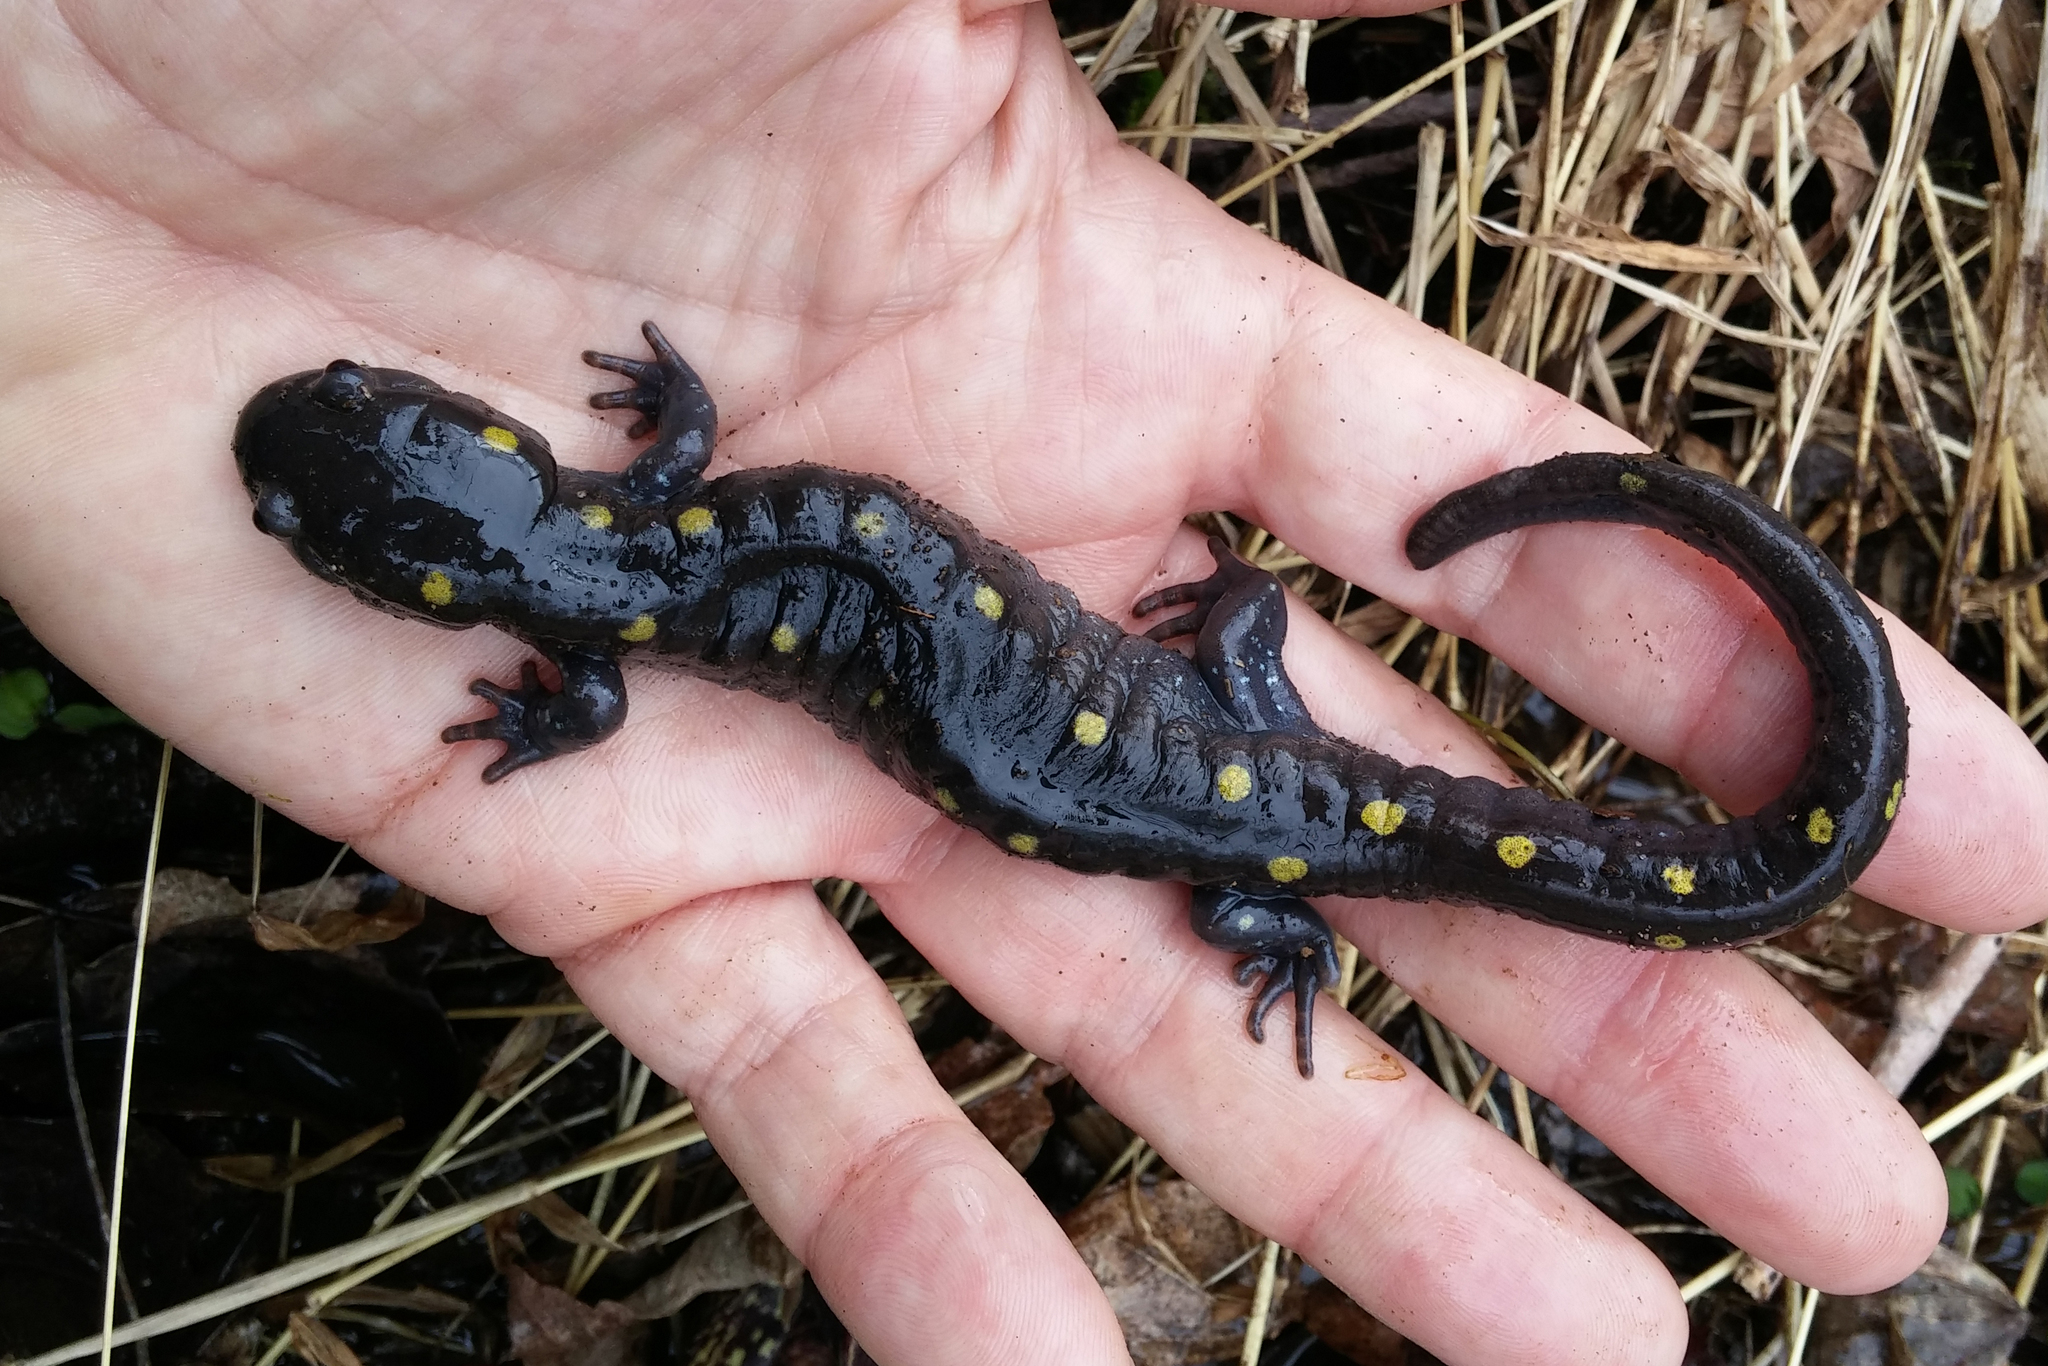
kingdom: Animalia
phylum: Chordata
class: Amphibia
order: Caudata
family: Ambystomatidae
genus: Ambystoma
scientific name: Ambystoma maculatum
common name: Spotted salamander
